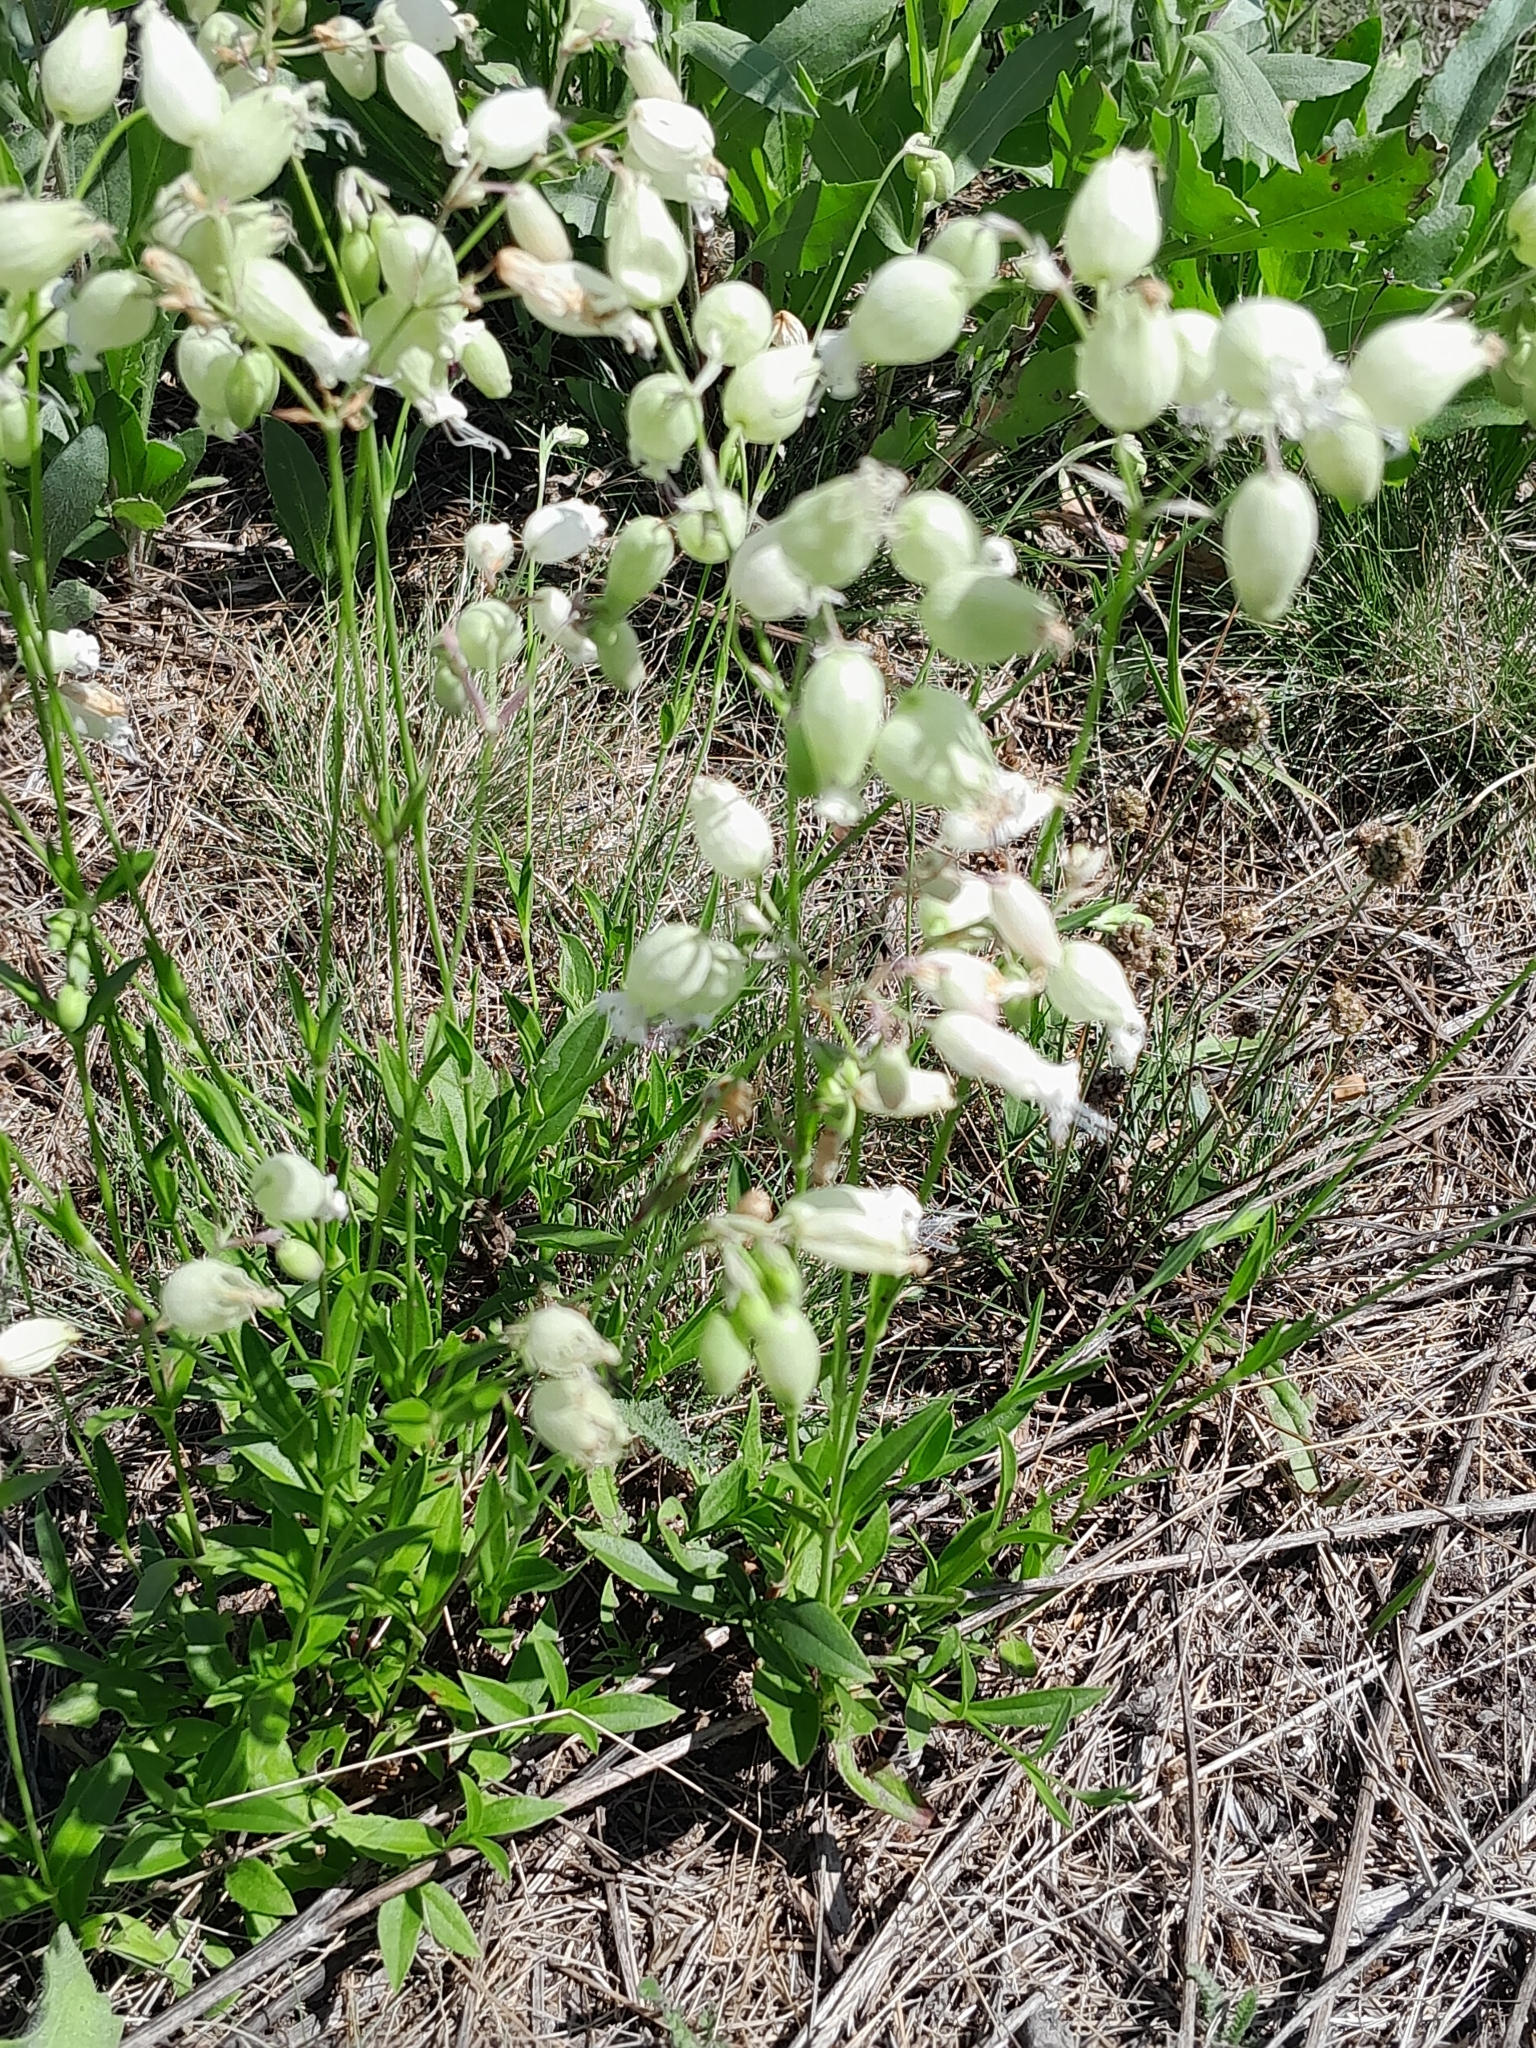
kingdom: Plantae
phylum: Tracheophyta
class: Magnoliopsida
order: Caryophyllales
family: Caryophyllaceae
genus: Silene
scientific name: Silene vulgaris
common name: Bladder campion
